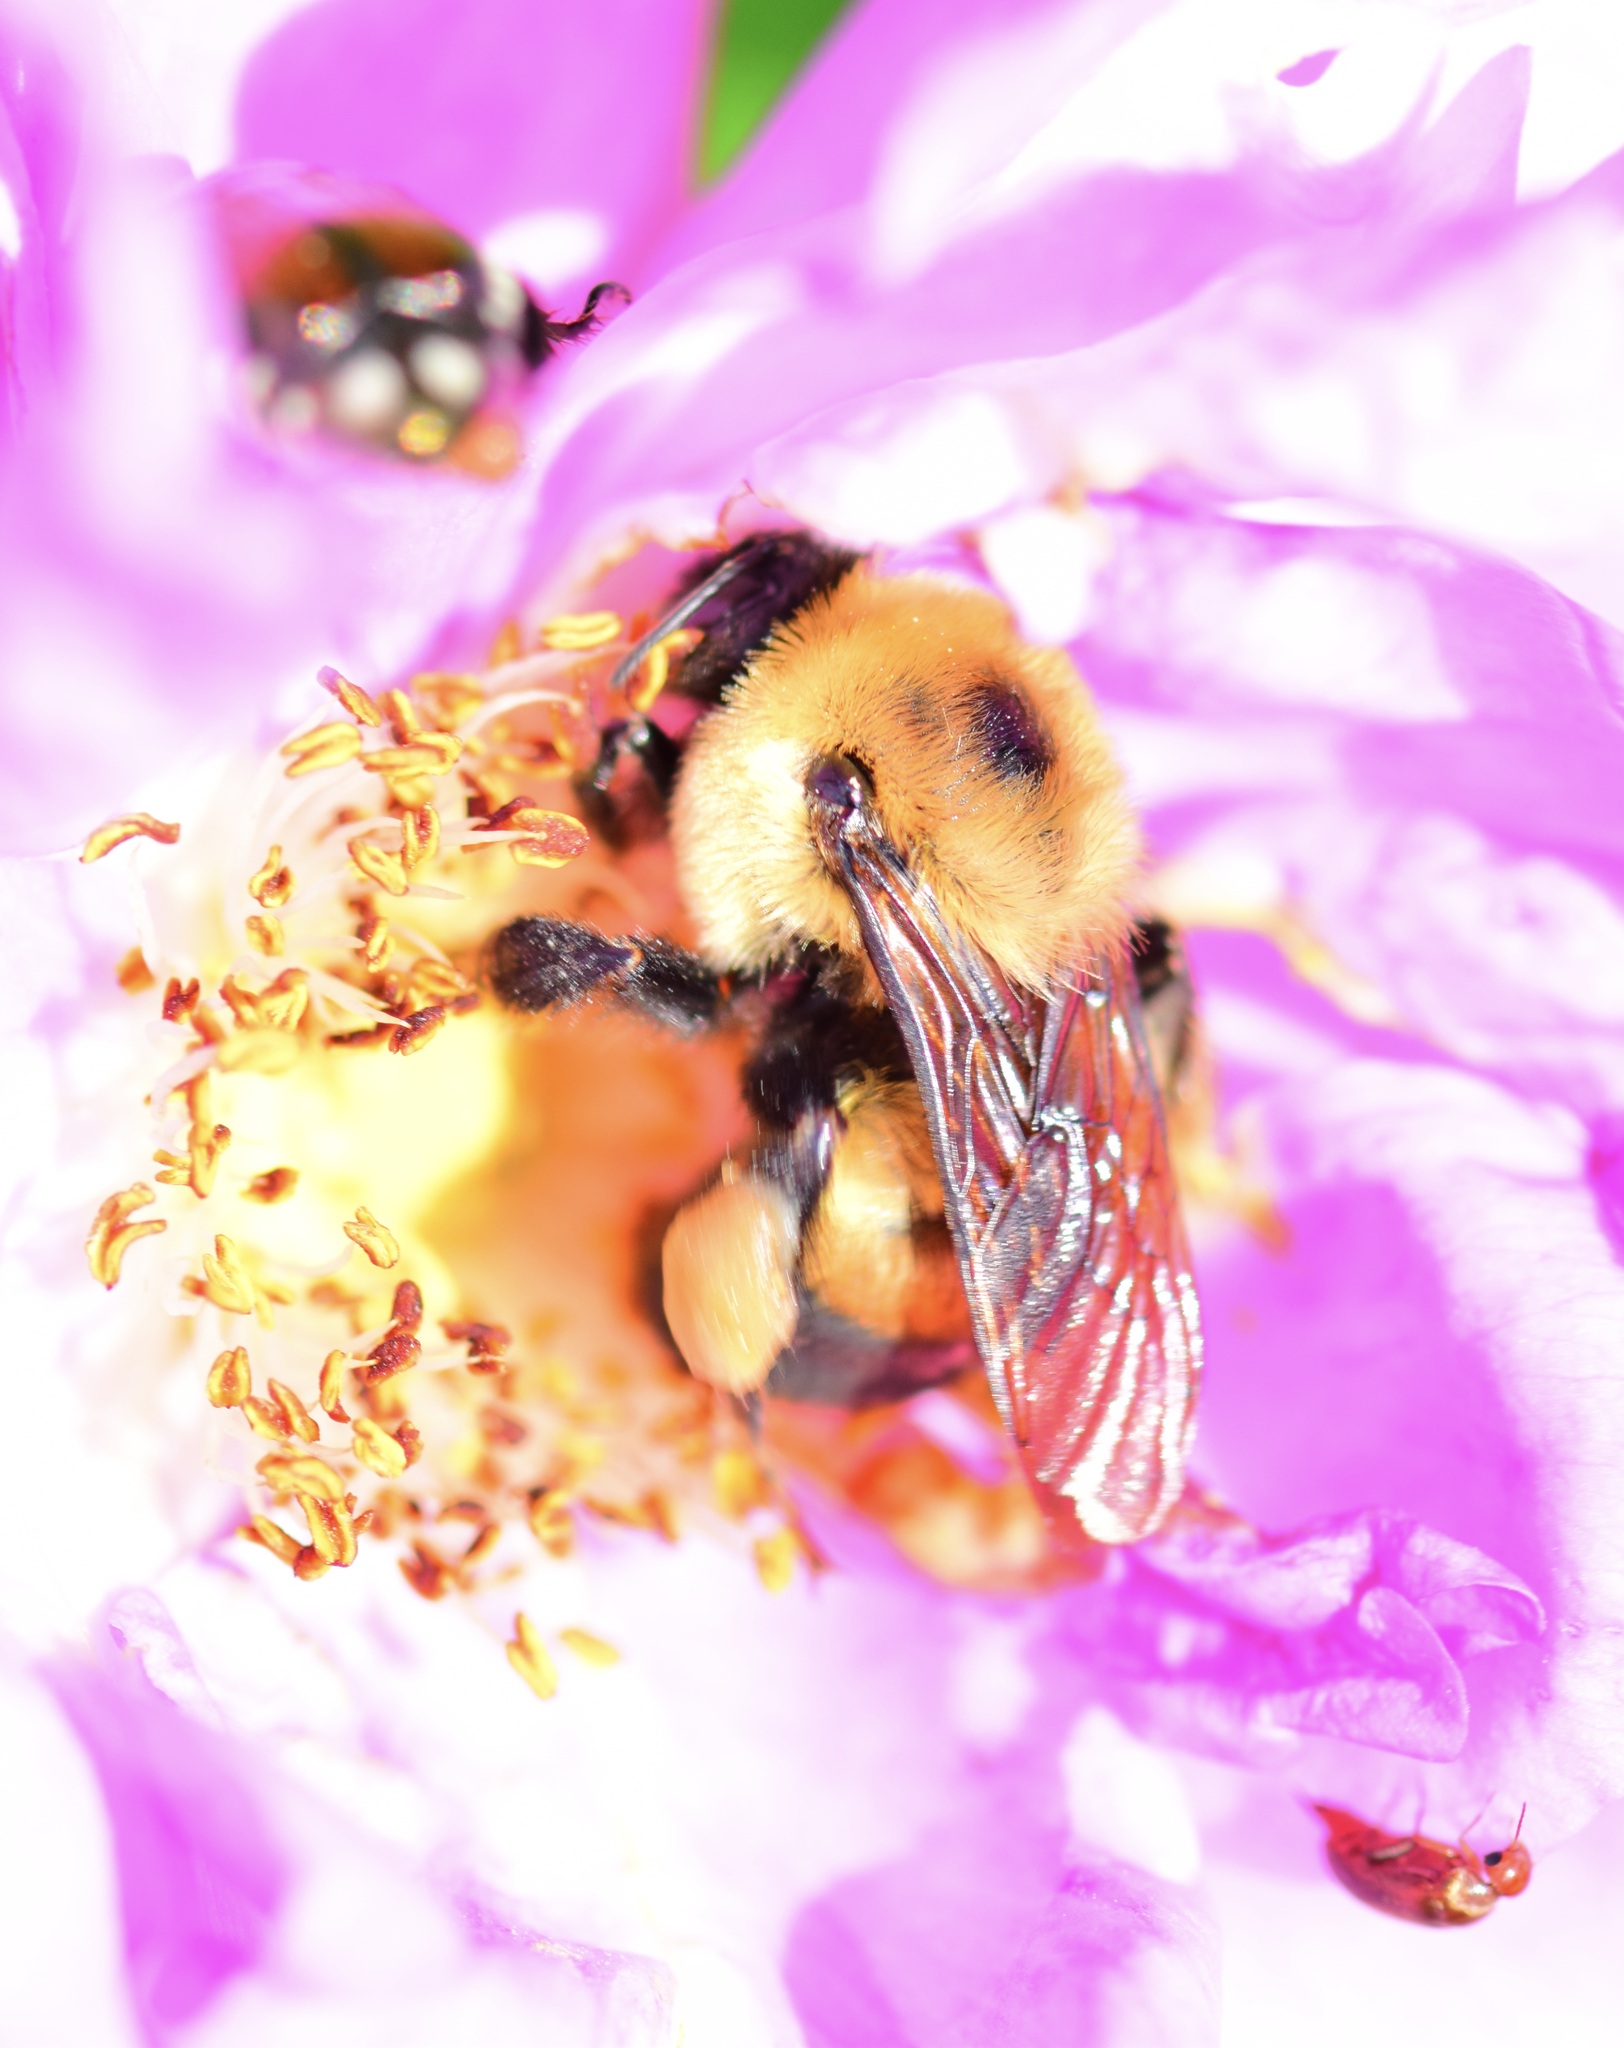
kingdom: Animalia
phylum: Arthropoda
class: Insecta
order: Hymenoptera
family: Apidae
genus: Bombus
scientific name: Bombus griseocollis
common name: Brown-belted bumble bee
